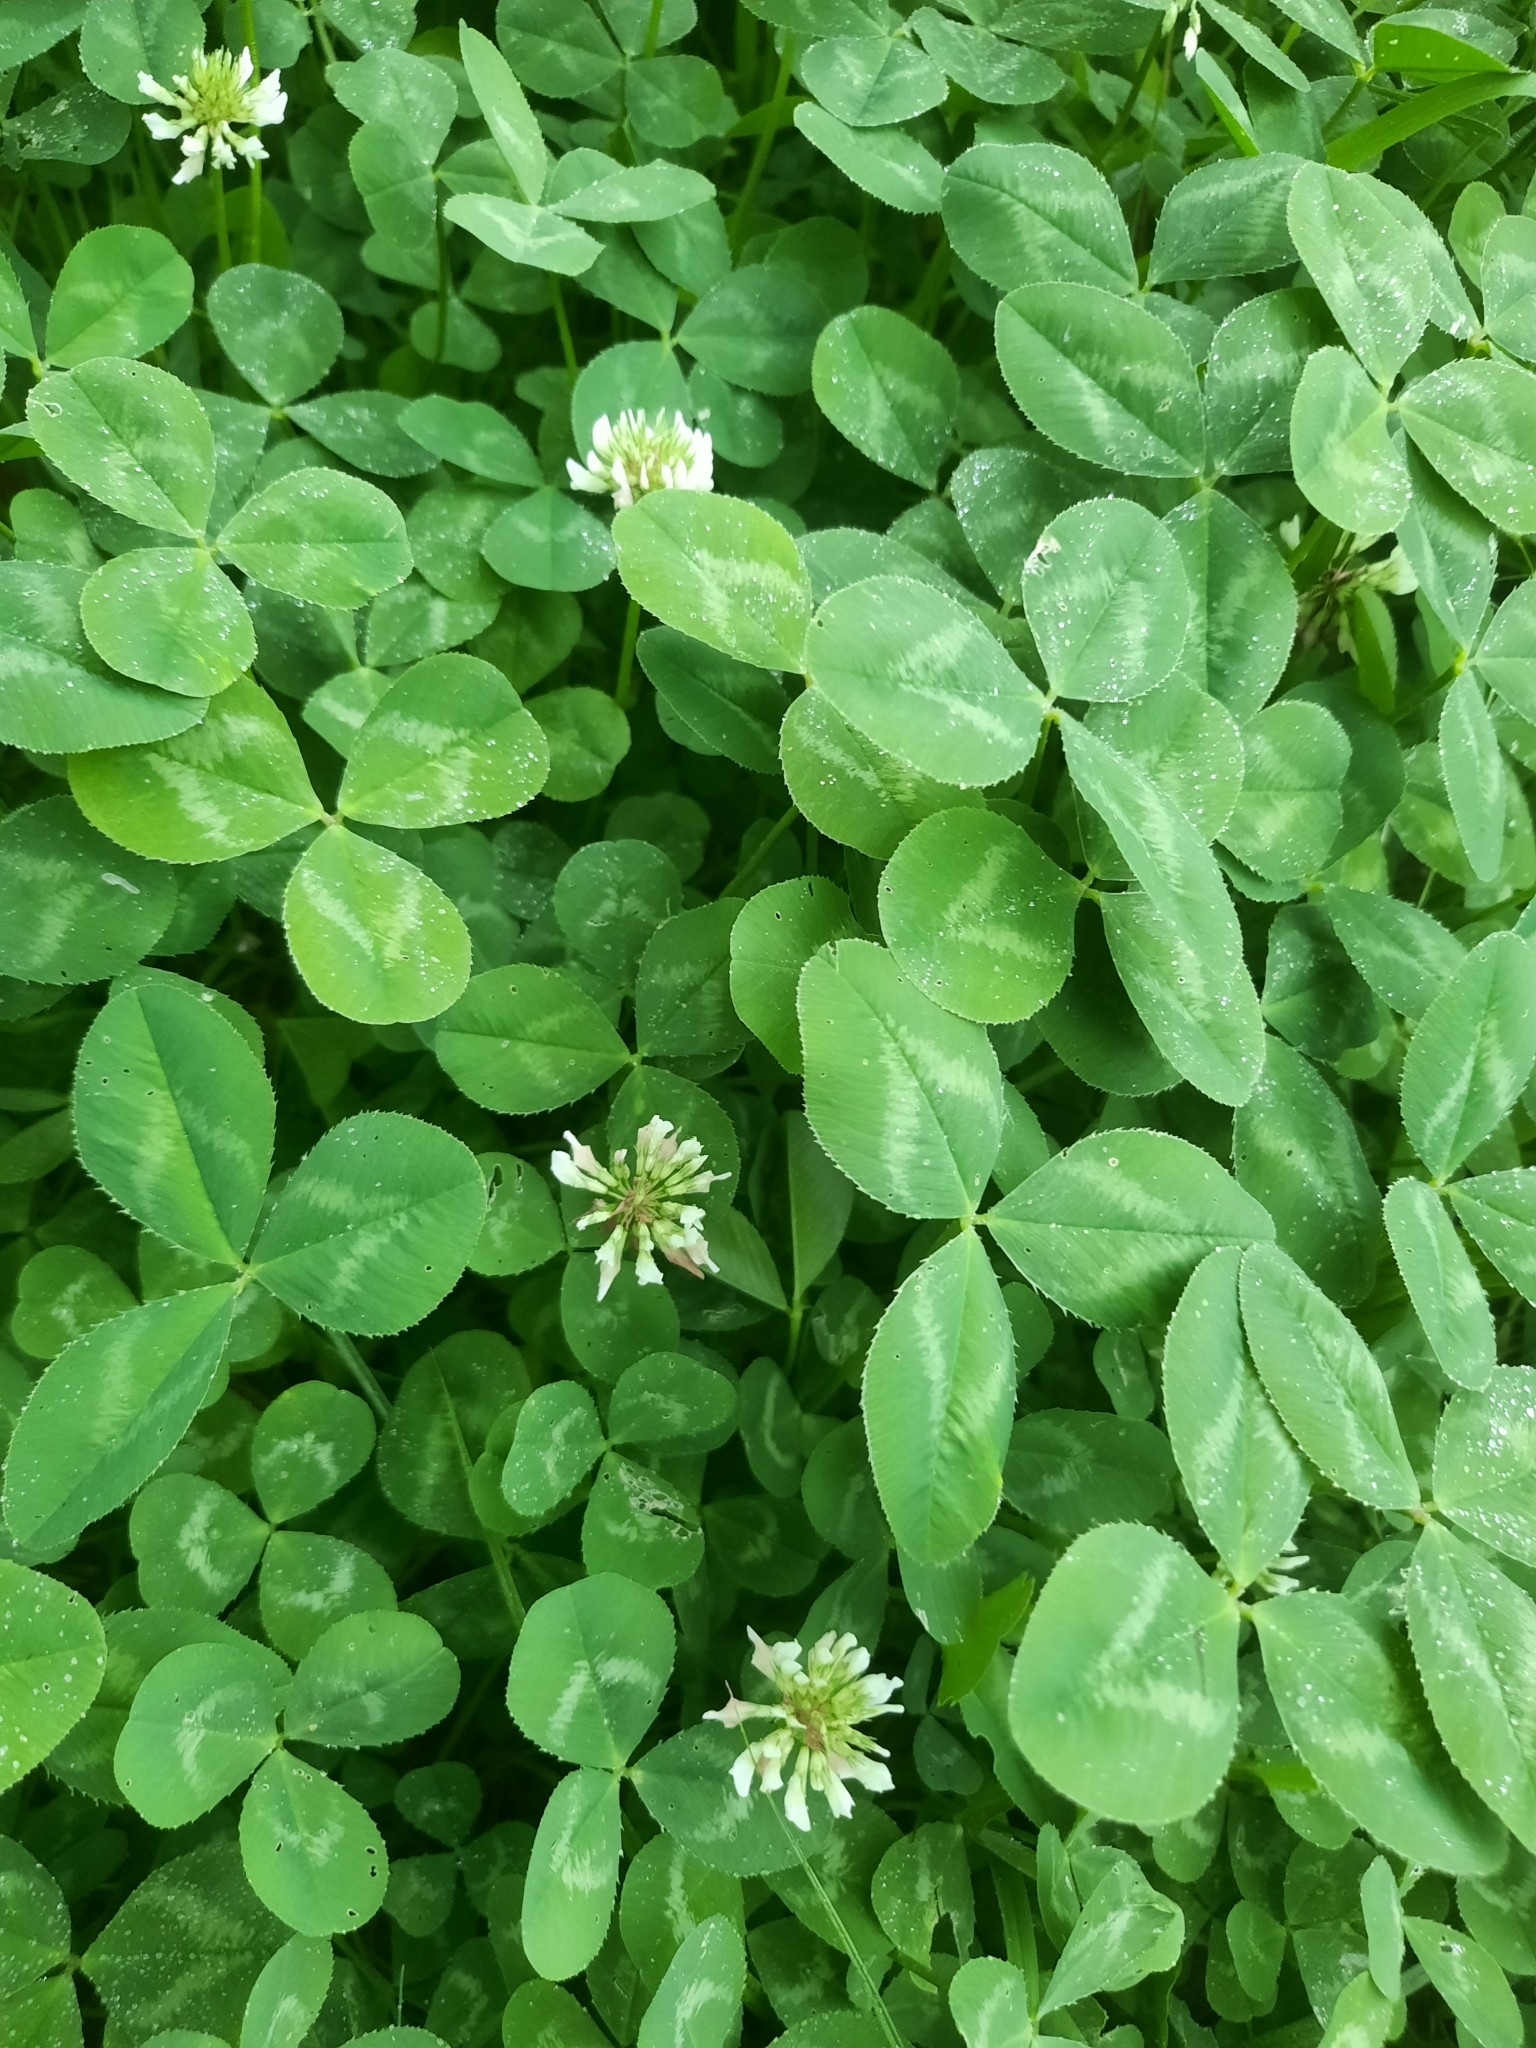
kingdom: Plantae
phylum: Tracheophyta
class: Magnoliopsida
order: Fabales
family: Fabaceae
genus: Trifolium
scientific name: Trifolium repens
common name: White clover
